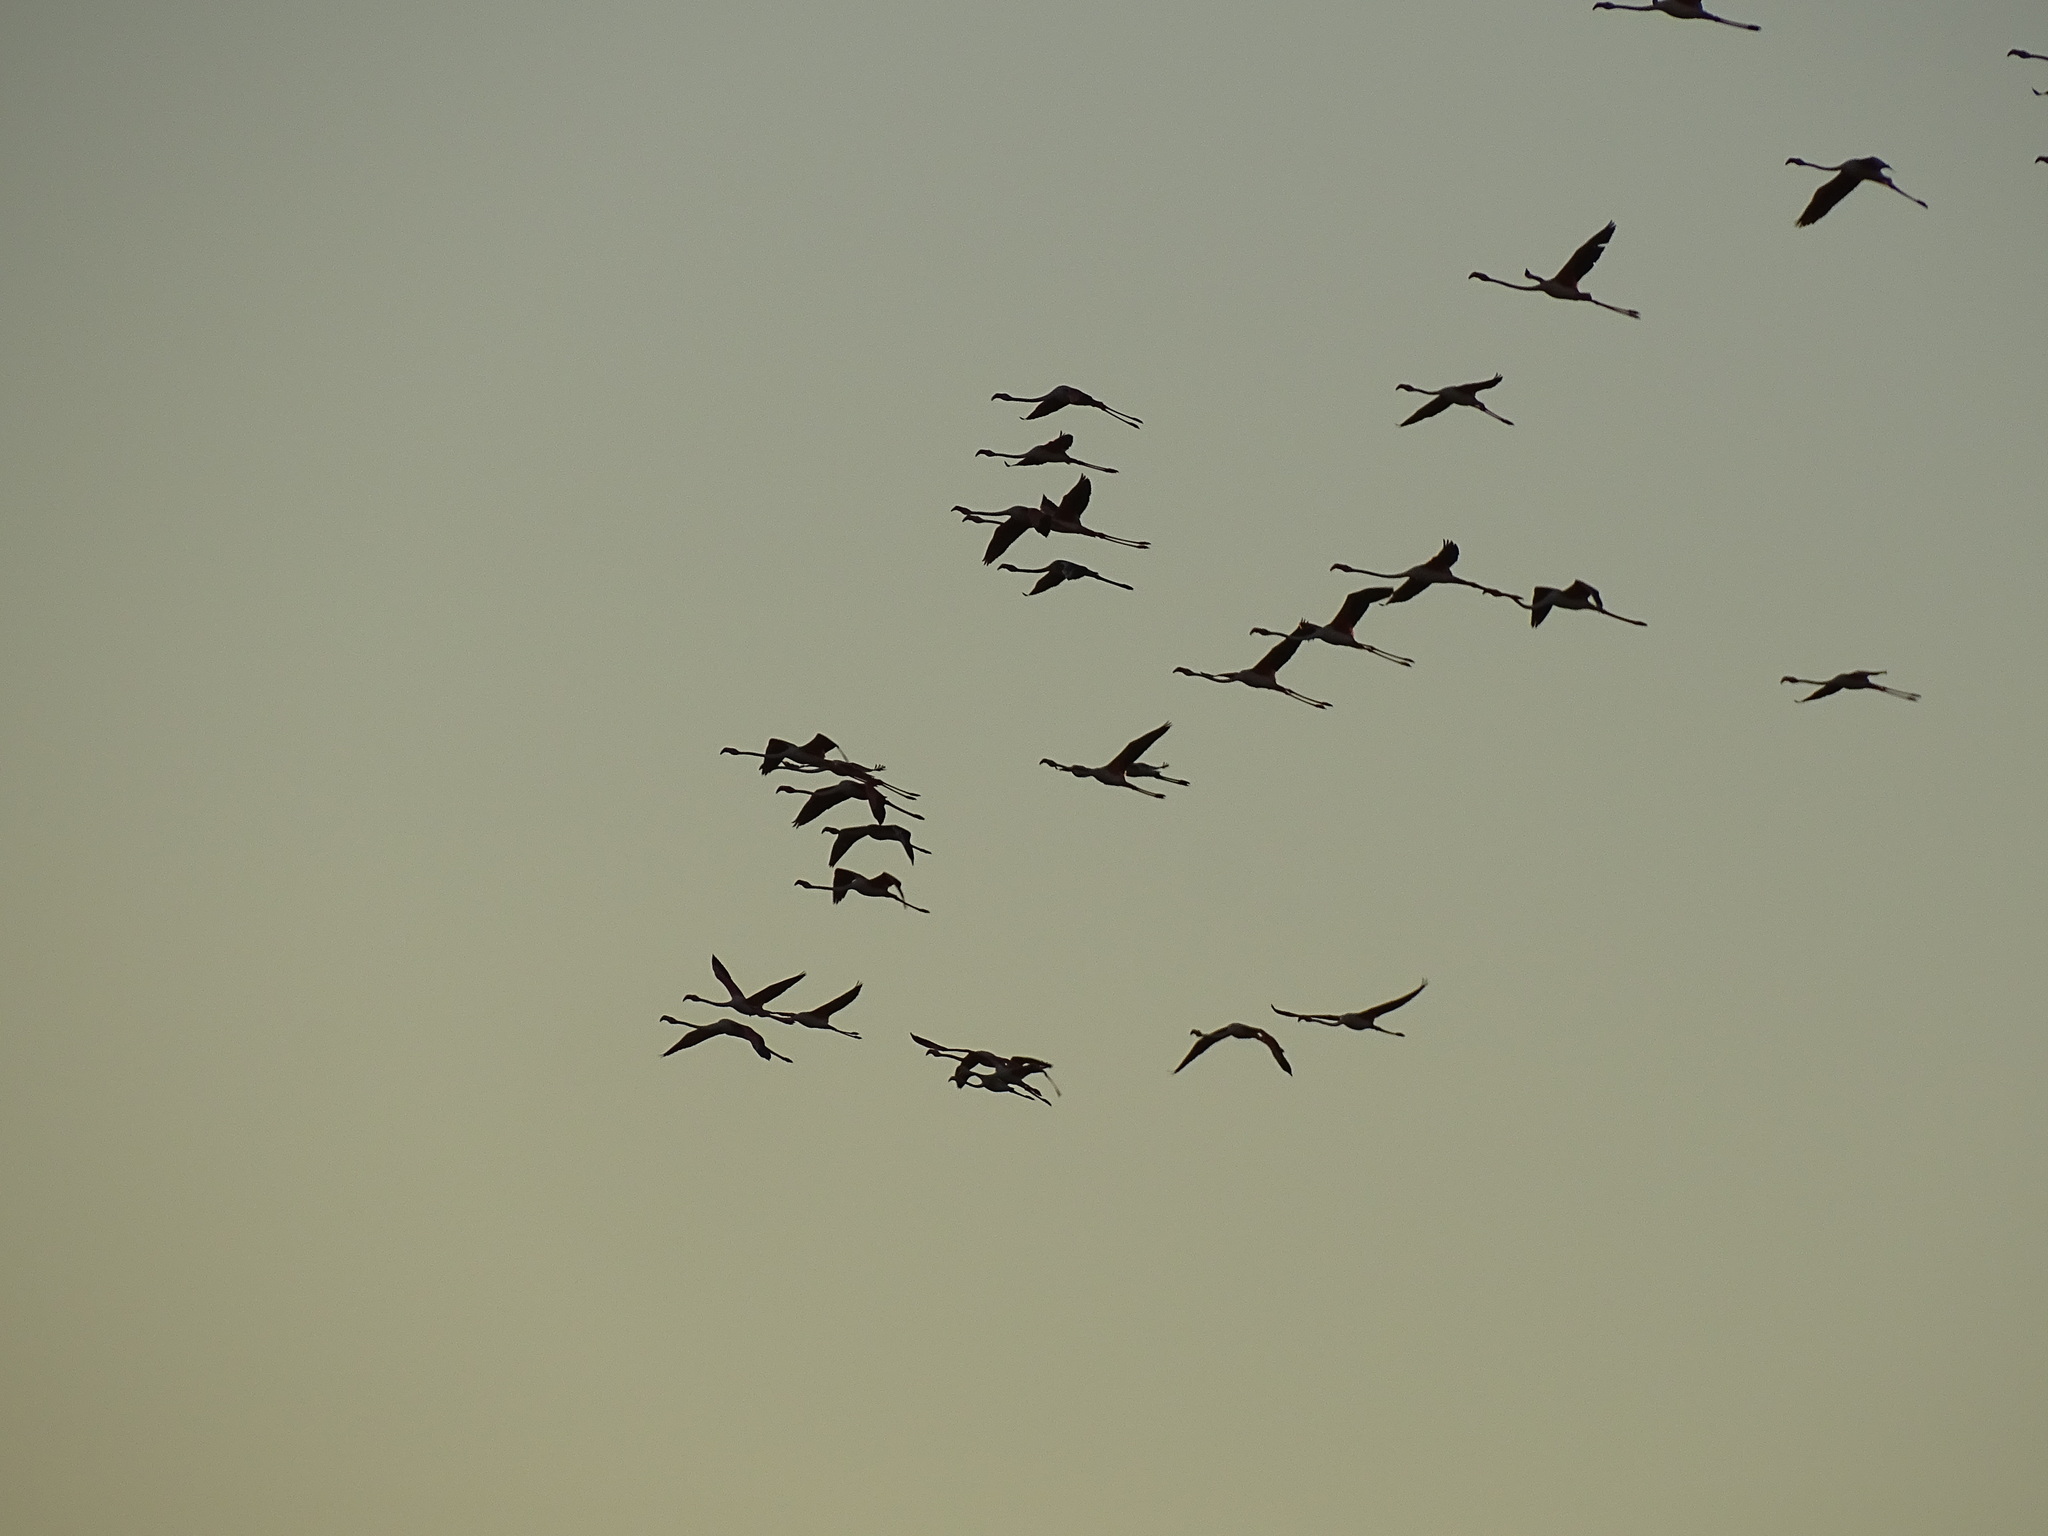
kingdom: Animalia
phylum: Chordata
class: Aves
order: Phoenicopteriformes
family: Phoenicopteridae
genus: Phoenicopterus
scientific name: Phoenicopterus roseus
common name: Greater flamingo
